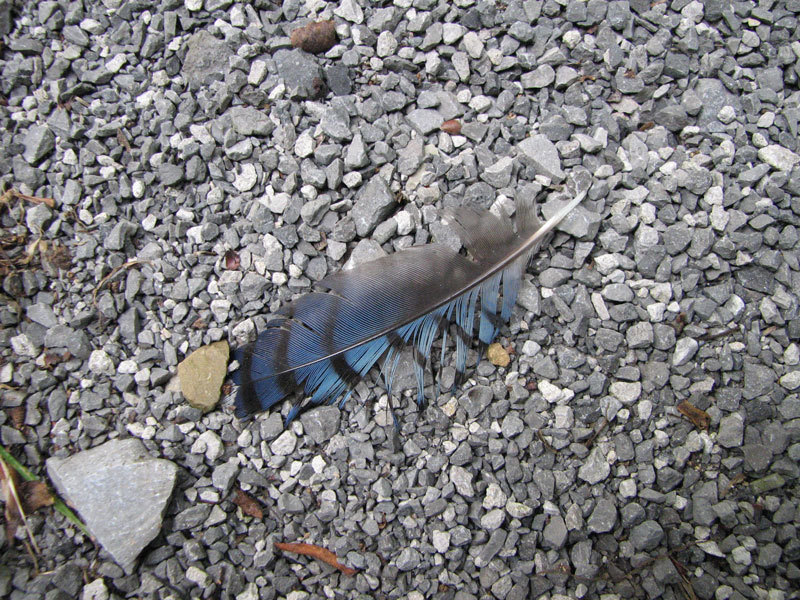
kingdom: Animalia
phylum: Chordata
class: Aves
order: Passeriformes
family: Corvidae
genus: Cyanocitta
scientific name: Cyanocitta cristata
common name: Blue jay
